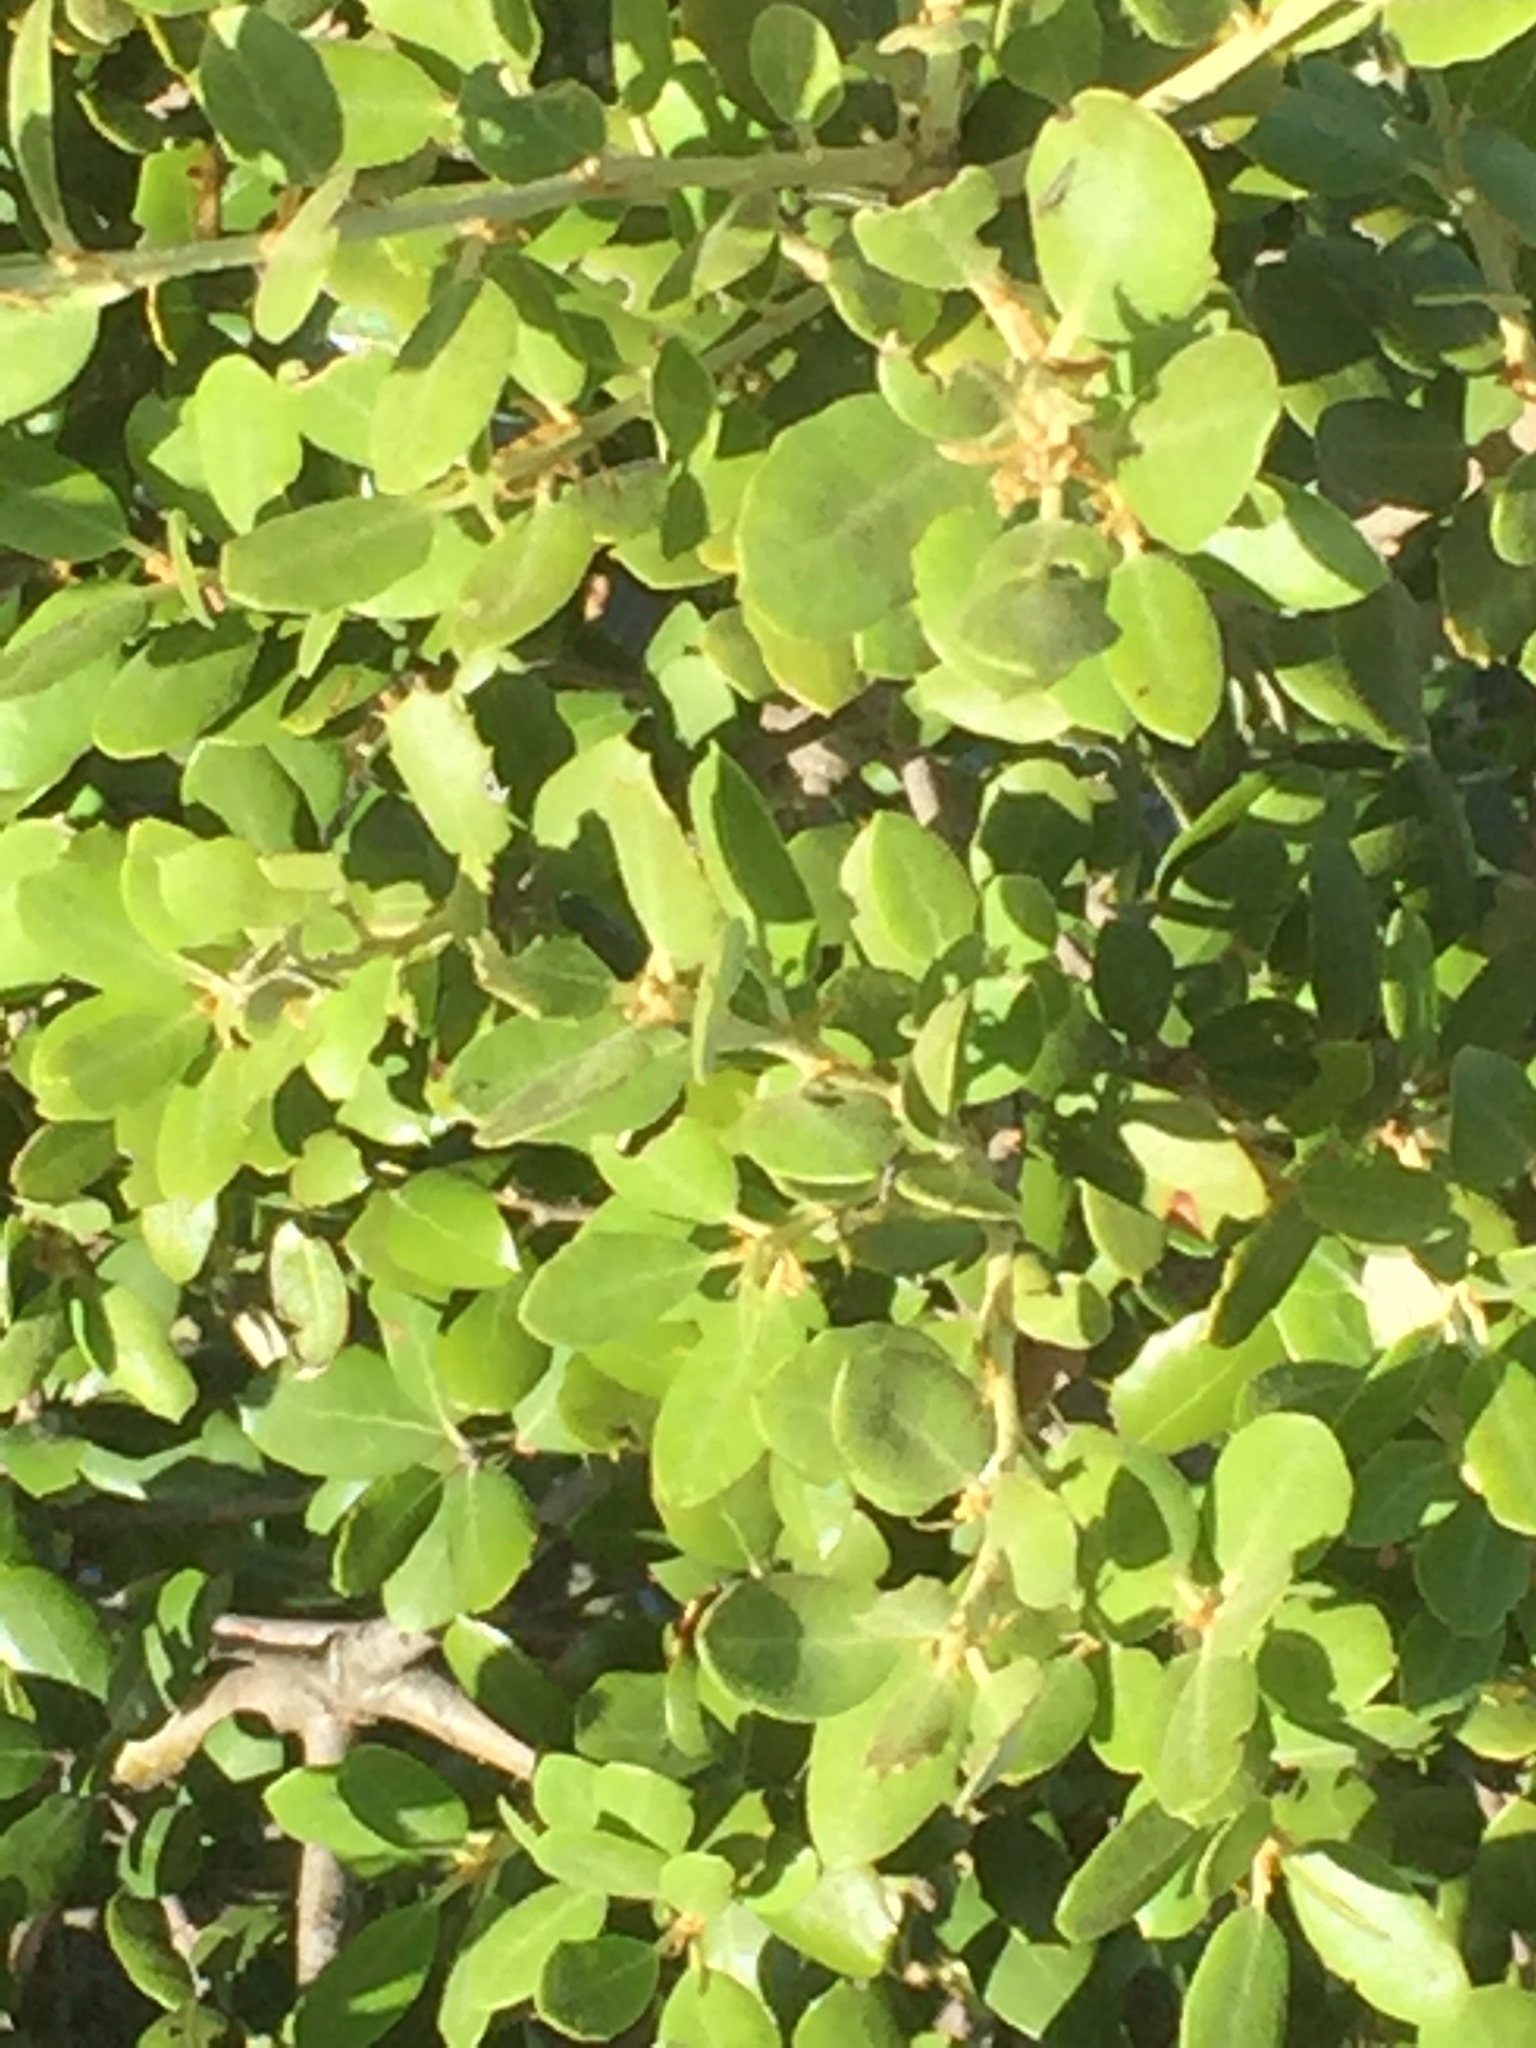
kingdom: Plantae
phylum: Tracheophyta
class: Magnoliopsida
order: Fagales
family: Fagaceae
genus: Quercus
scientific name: Quercus rotundifolia
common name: Holm oak
